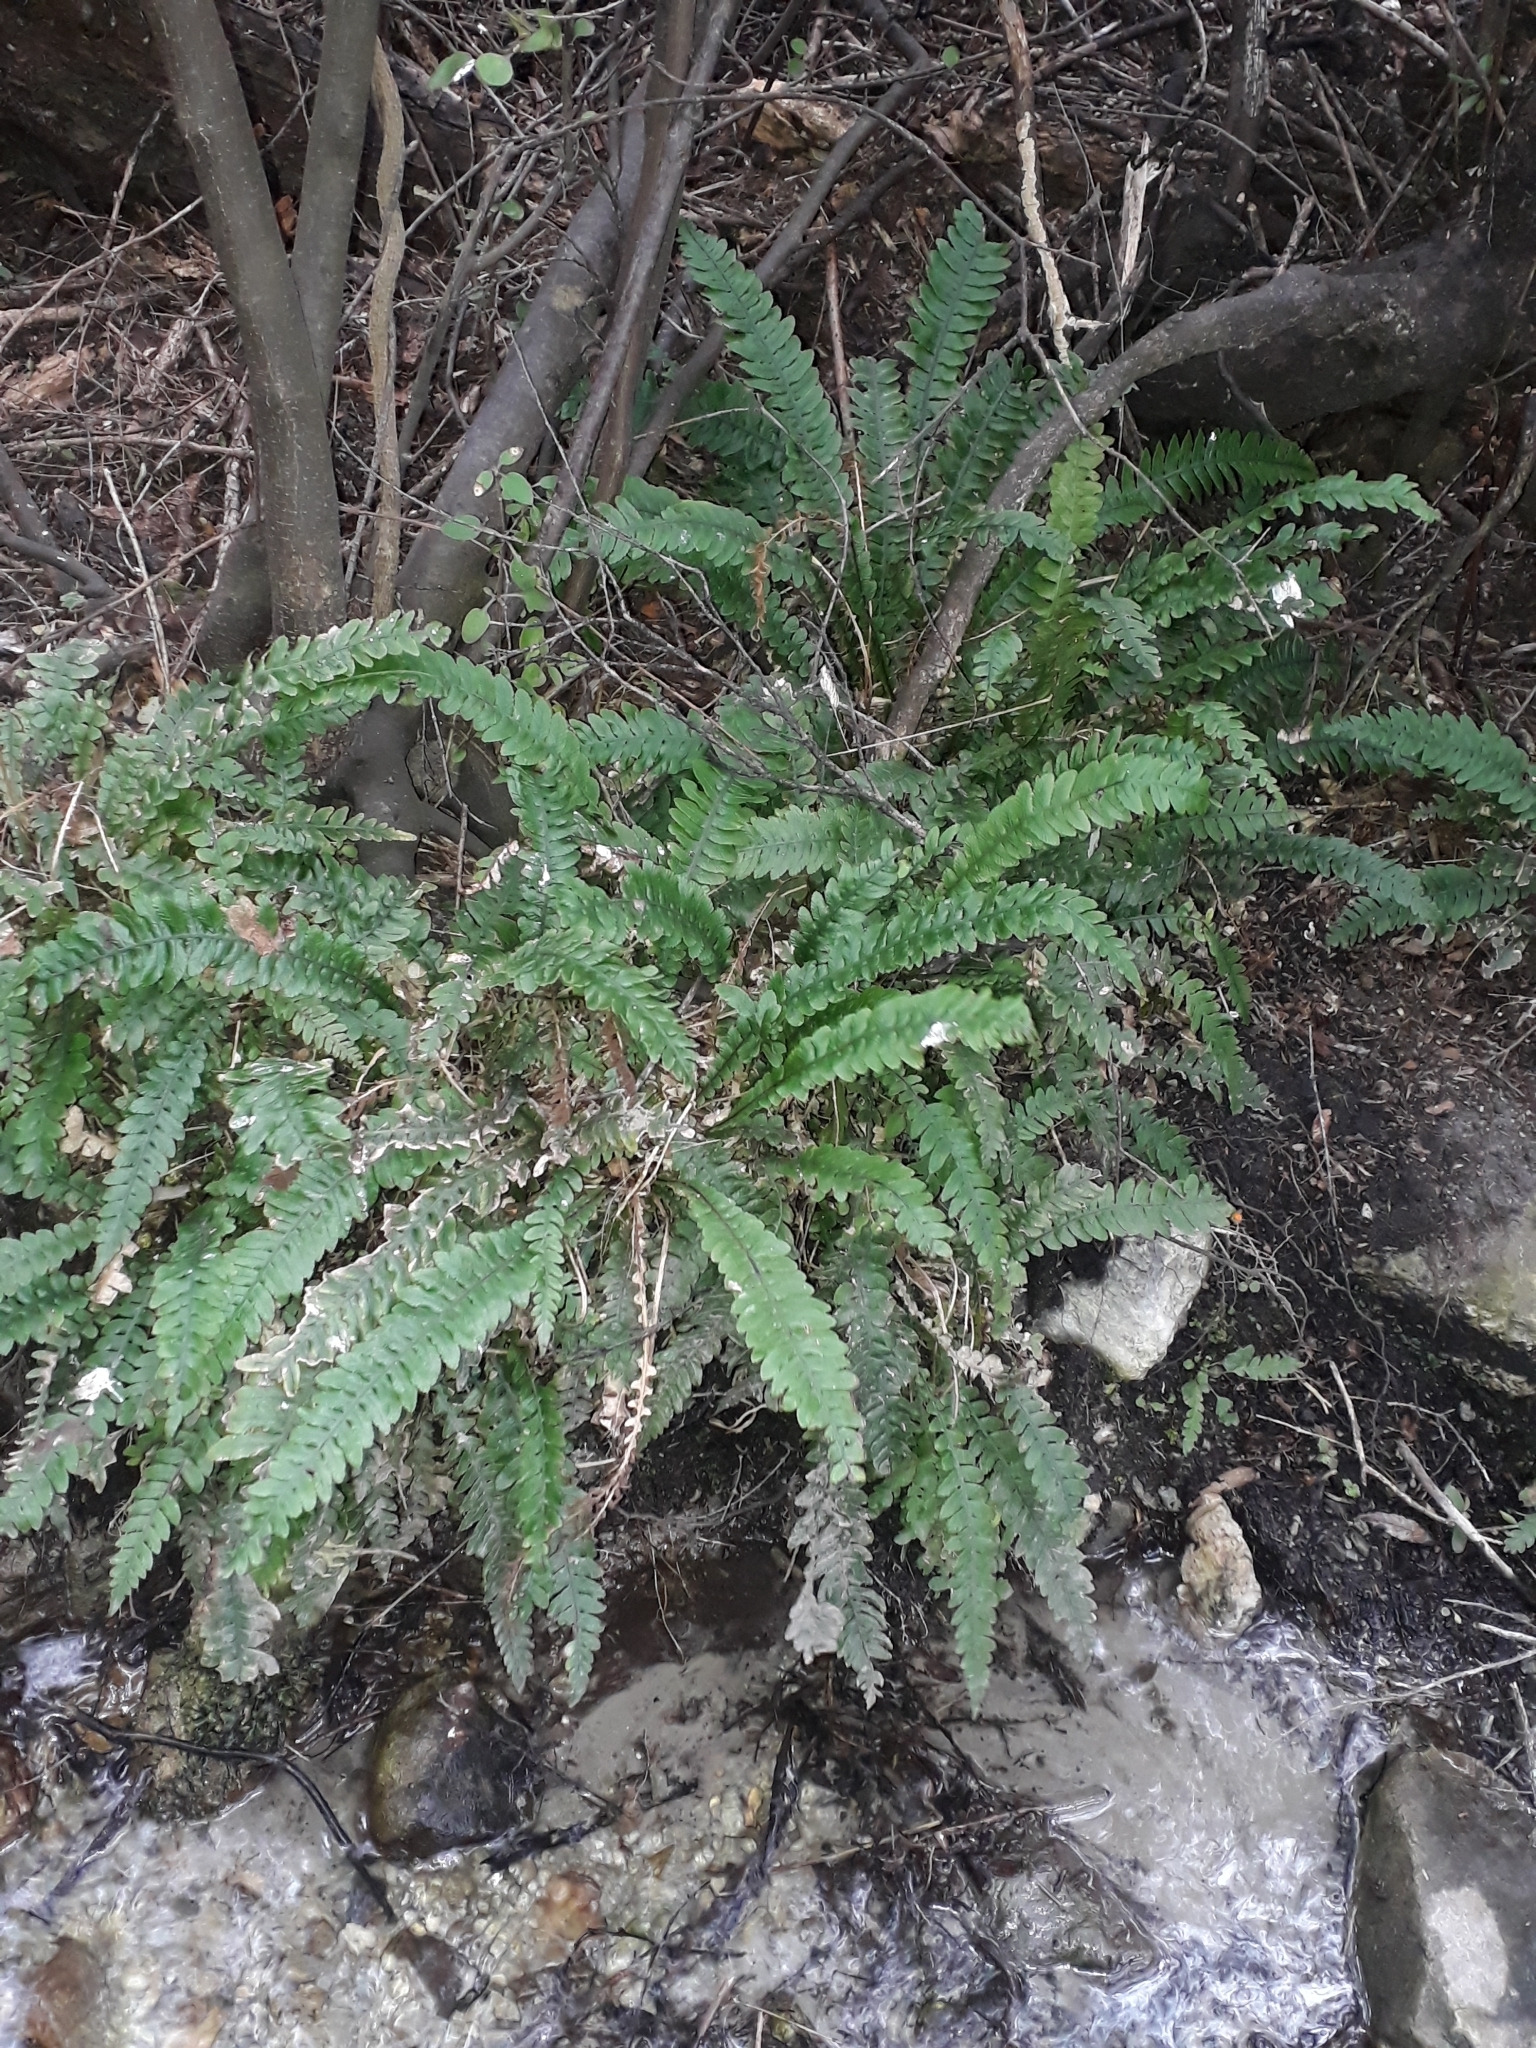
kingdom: Plantae
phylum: Tracheophyta
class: Polypodiopsida
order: Polypodiales
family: Blechnaceae
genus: Austroblechnum
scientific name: Austroblechnum lanceolatum
